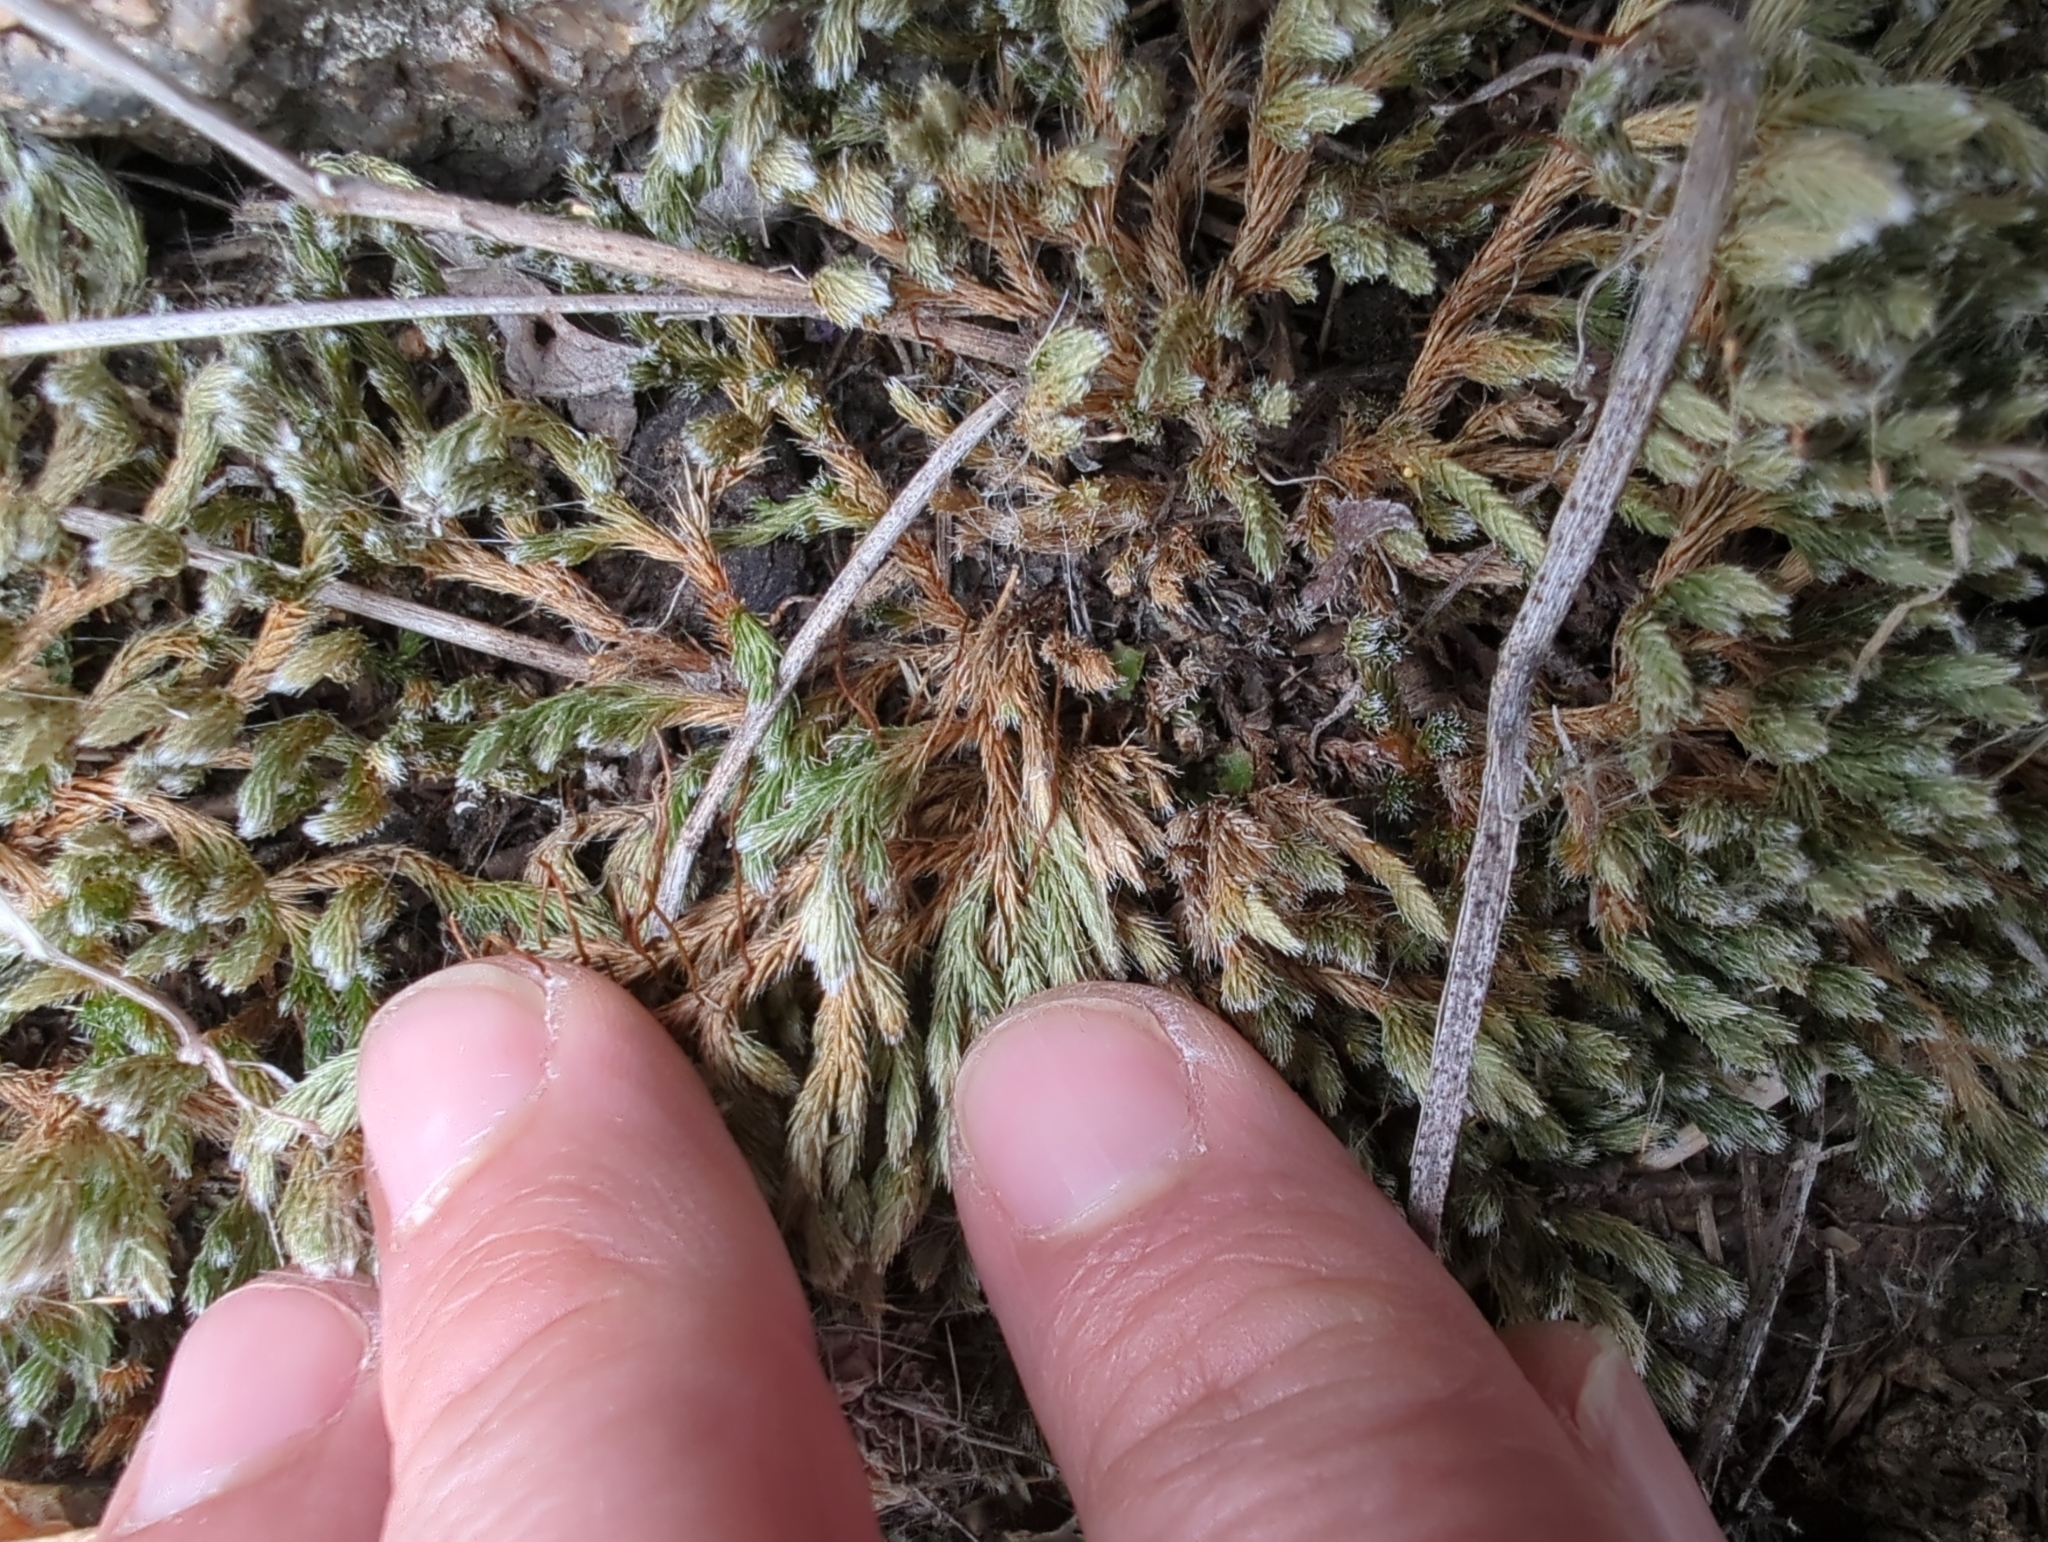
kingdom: Plantae
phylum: Tracheophyta
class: Lycopodiopsida
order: Selaginellales
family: Selaginellaceae
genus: Selaginella
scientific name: Selaginella rupestris
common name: Dwarf spikemoss
